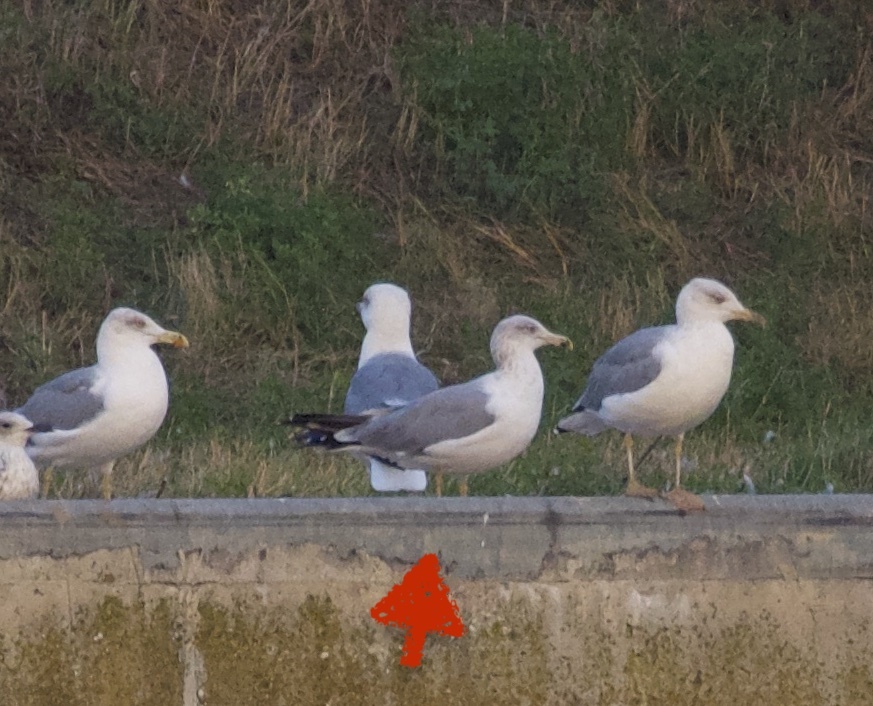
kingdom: Animalia
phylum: Chordata
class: Aves
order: Charadriiformes
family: Laridae
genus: Larus
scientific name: Larus argentatus
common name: Herring gull
